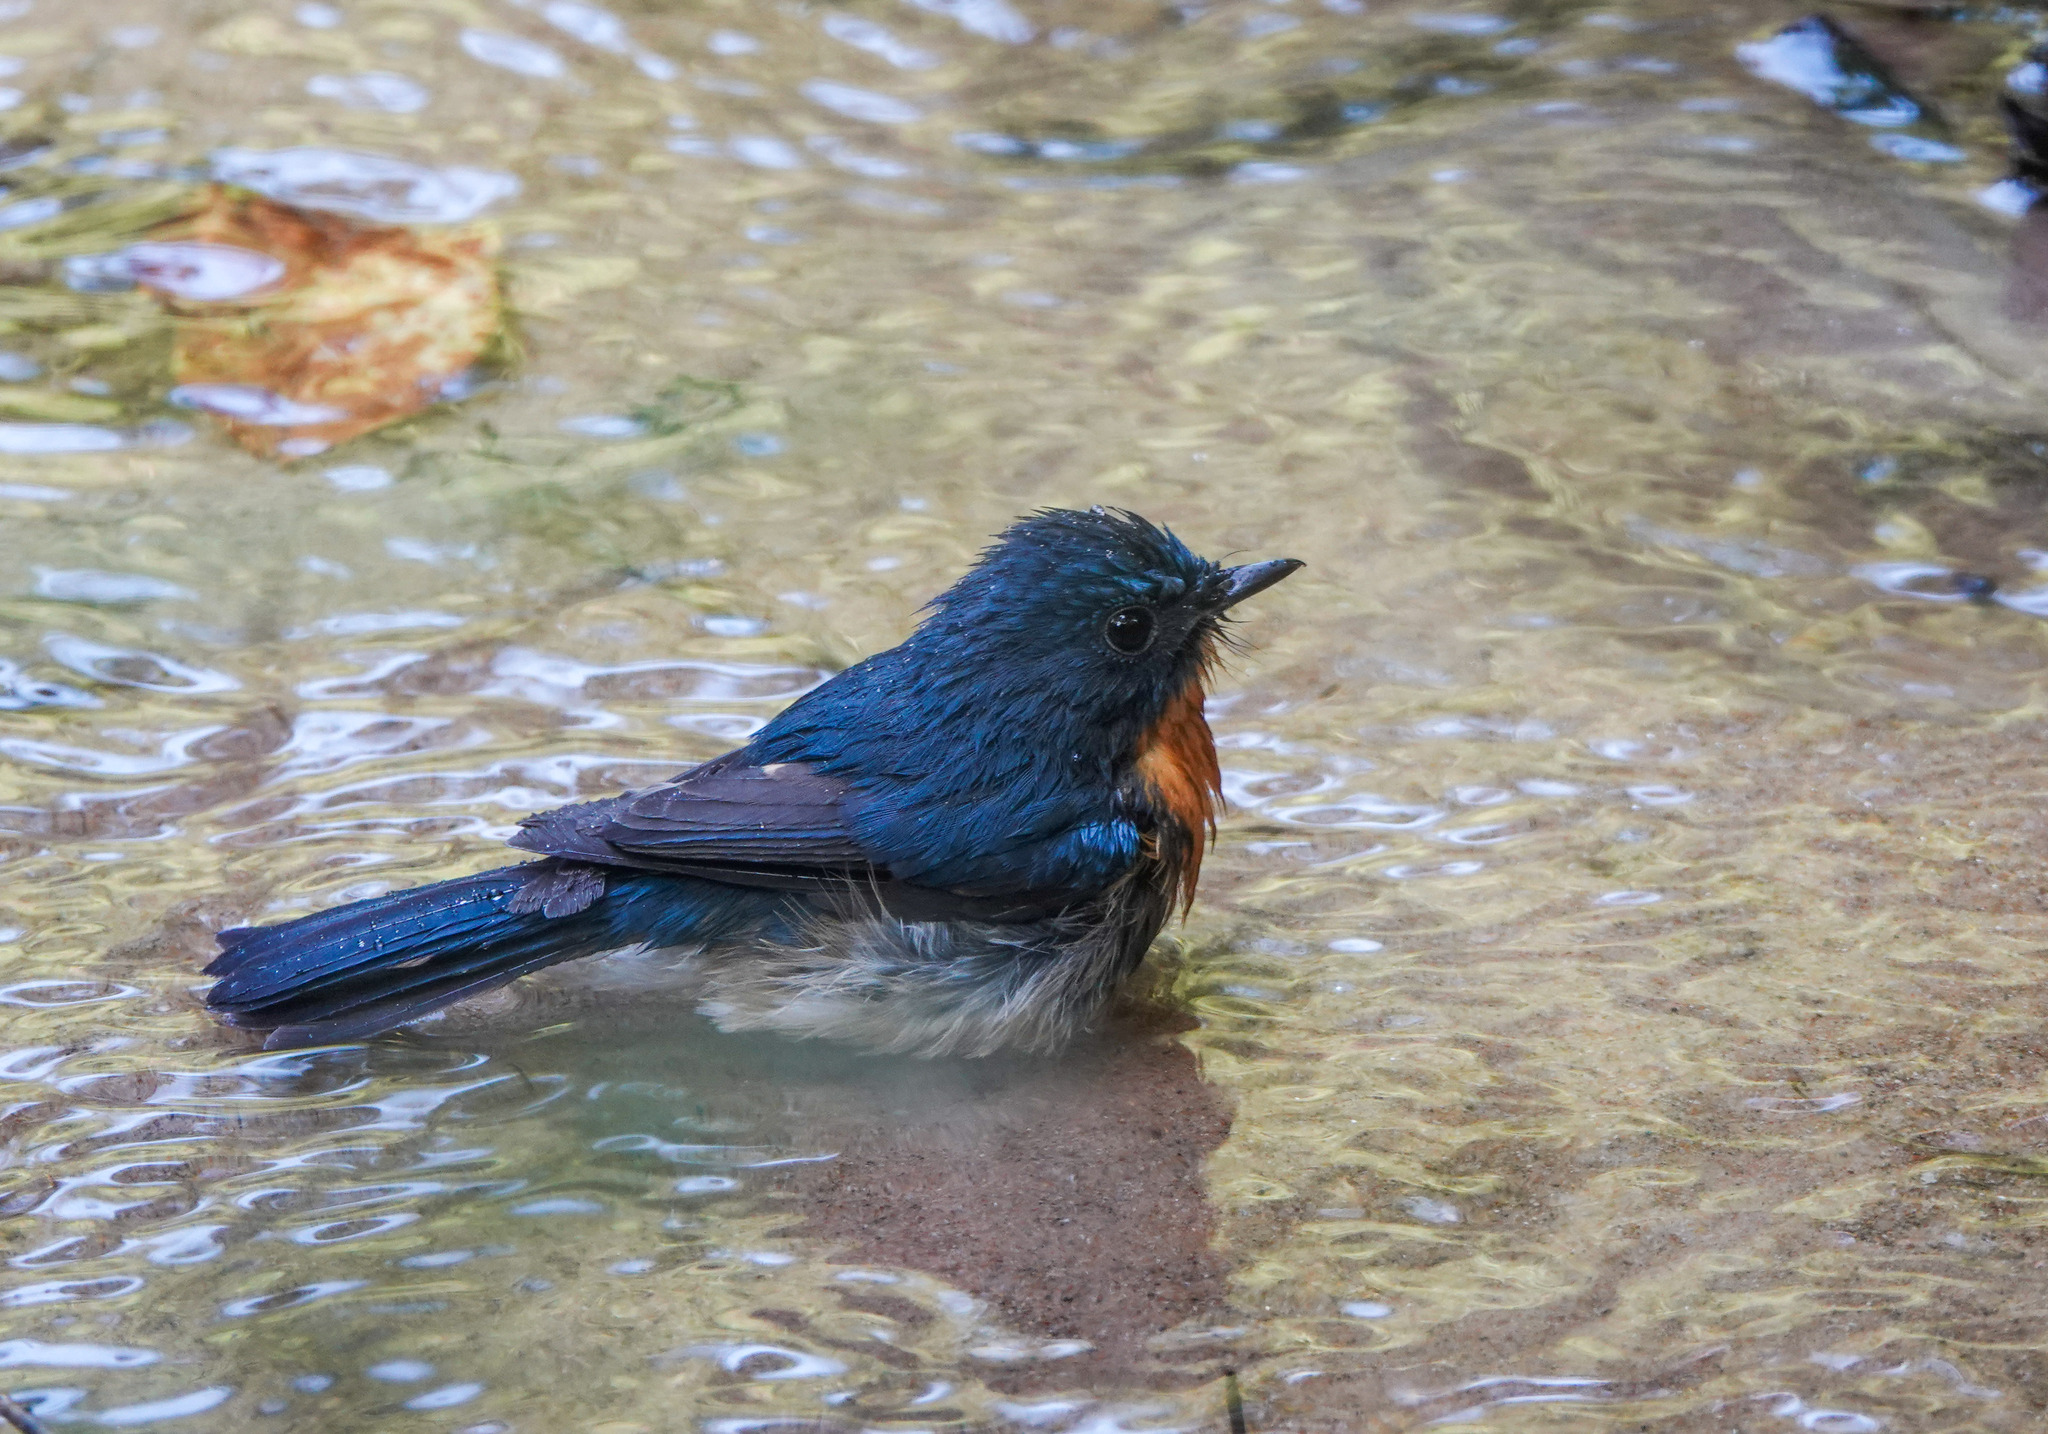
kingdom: Animalia
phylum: Chordata
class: Aves
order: Passeriformes
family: Muscicapidae
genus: Cyornis
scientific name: Cyornis whitei
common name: Hill blue flycatcher
